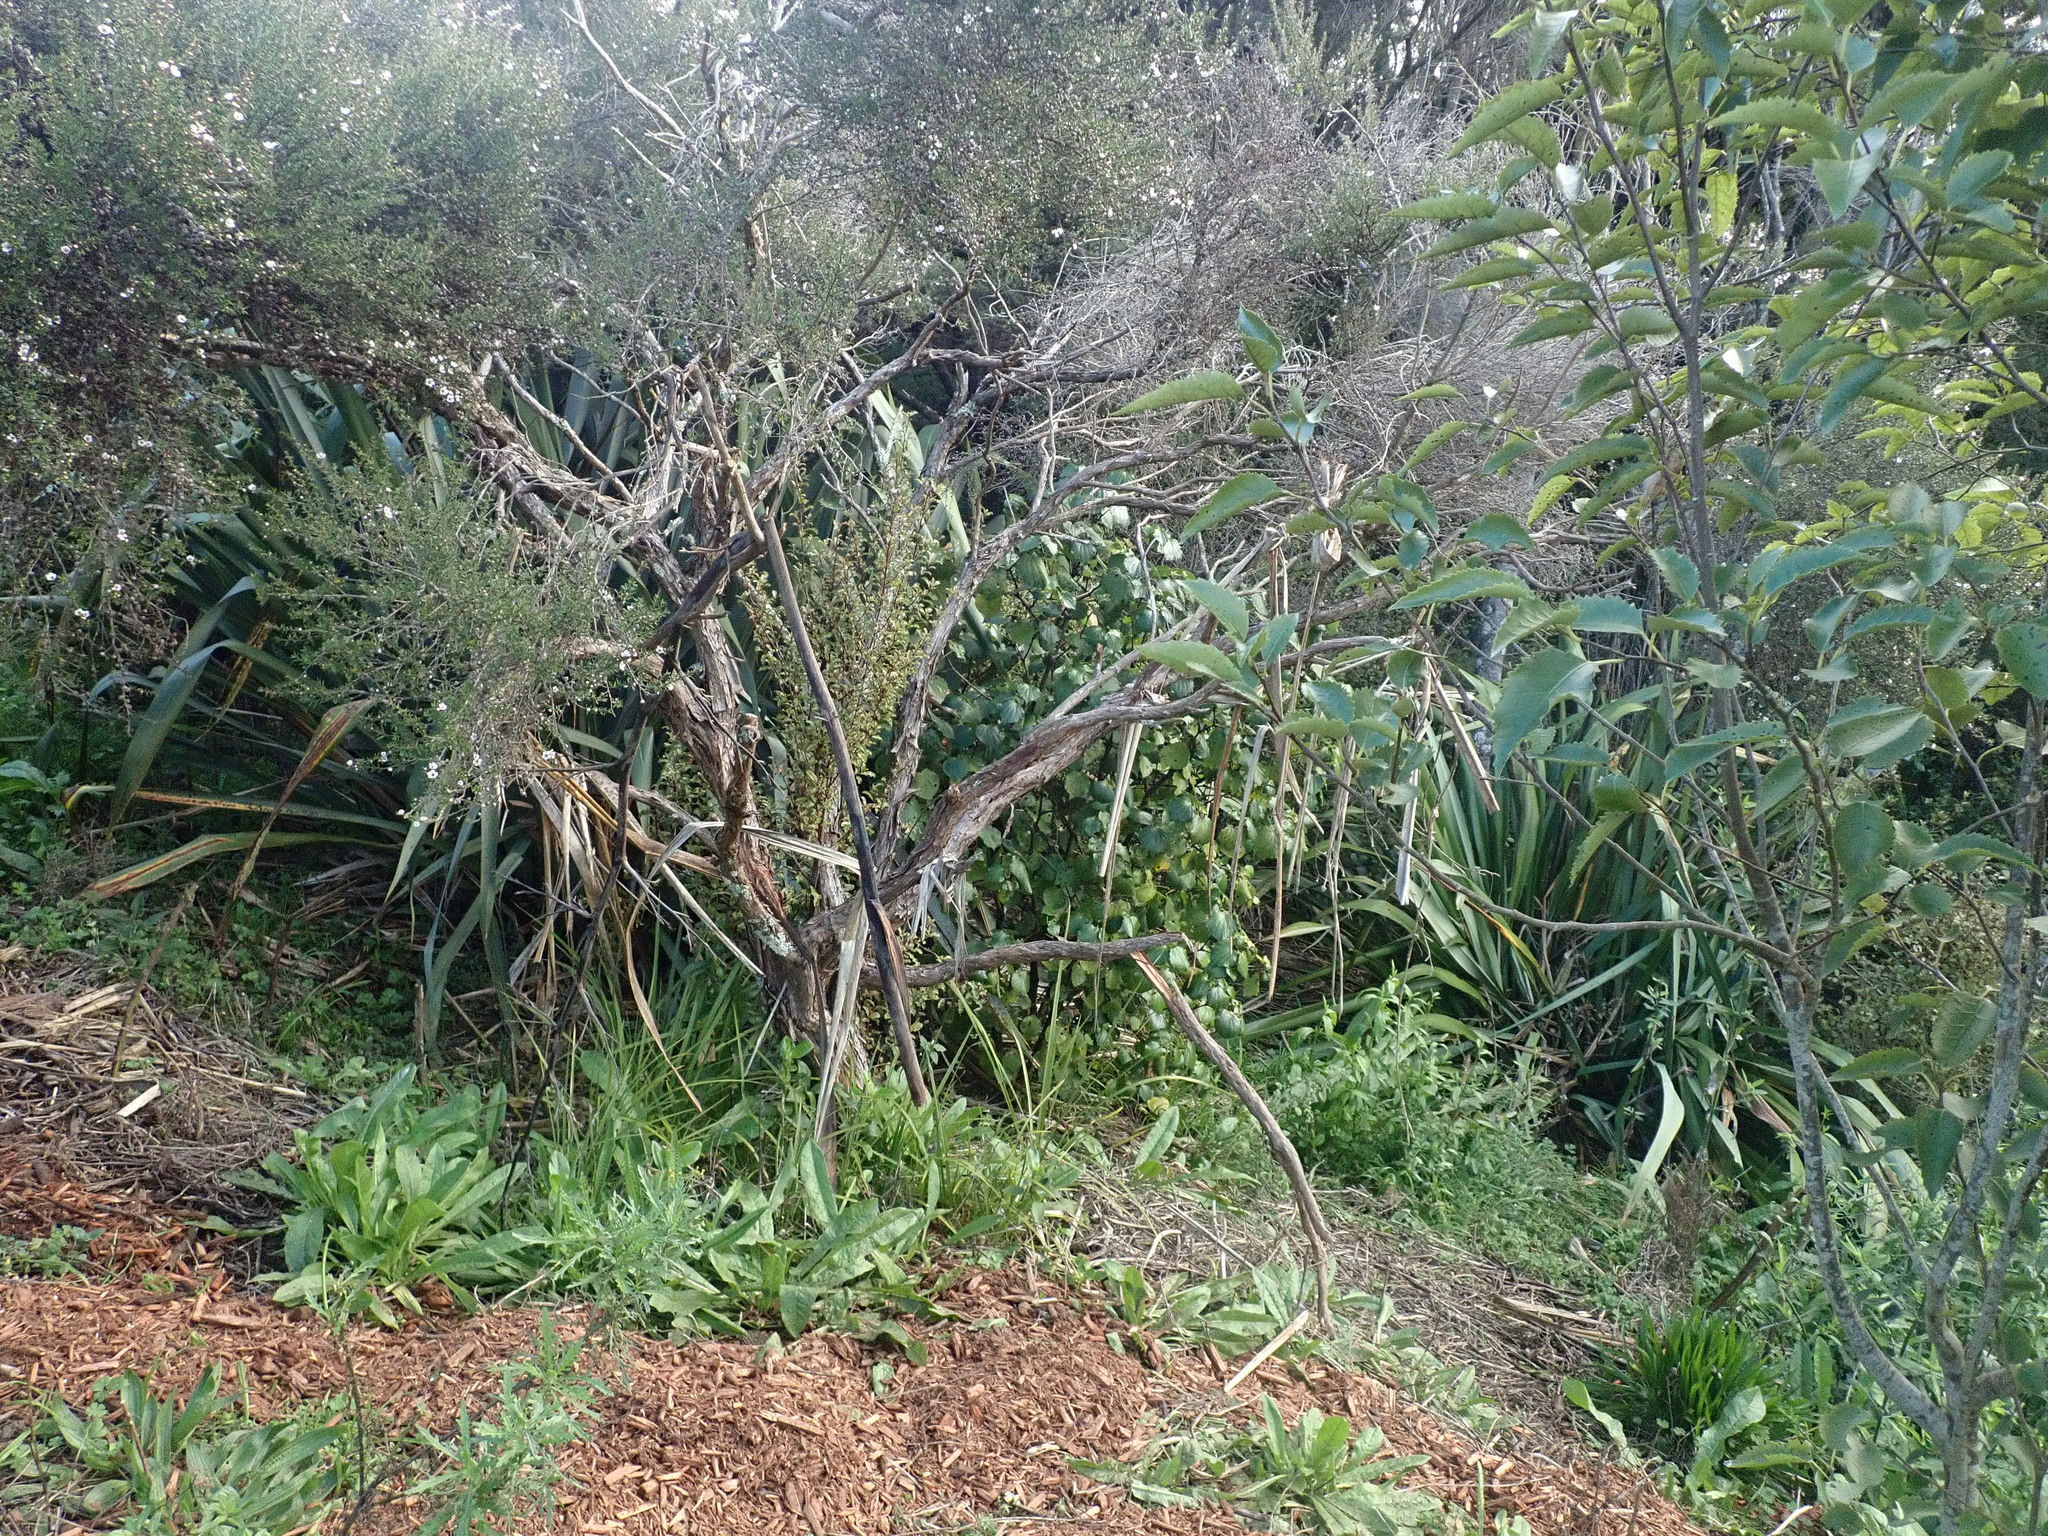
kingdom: Plantae
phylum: Tracheophyta
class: Magnoliopsida
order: Ericales
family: Primulaceae
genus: Myrsine
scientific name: Myrsine australis
